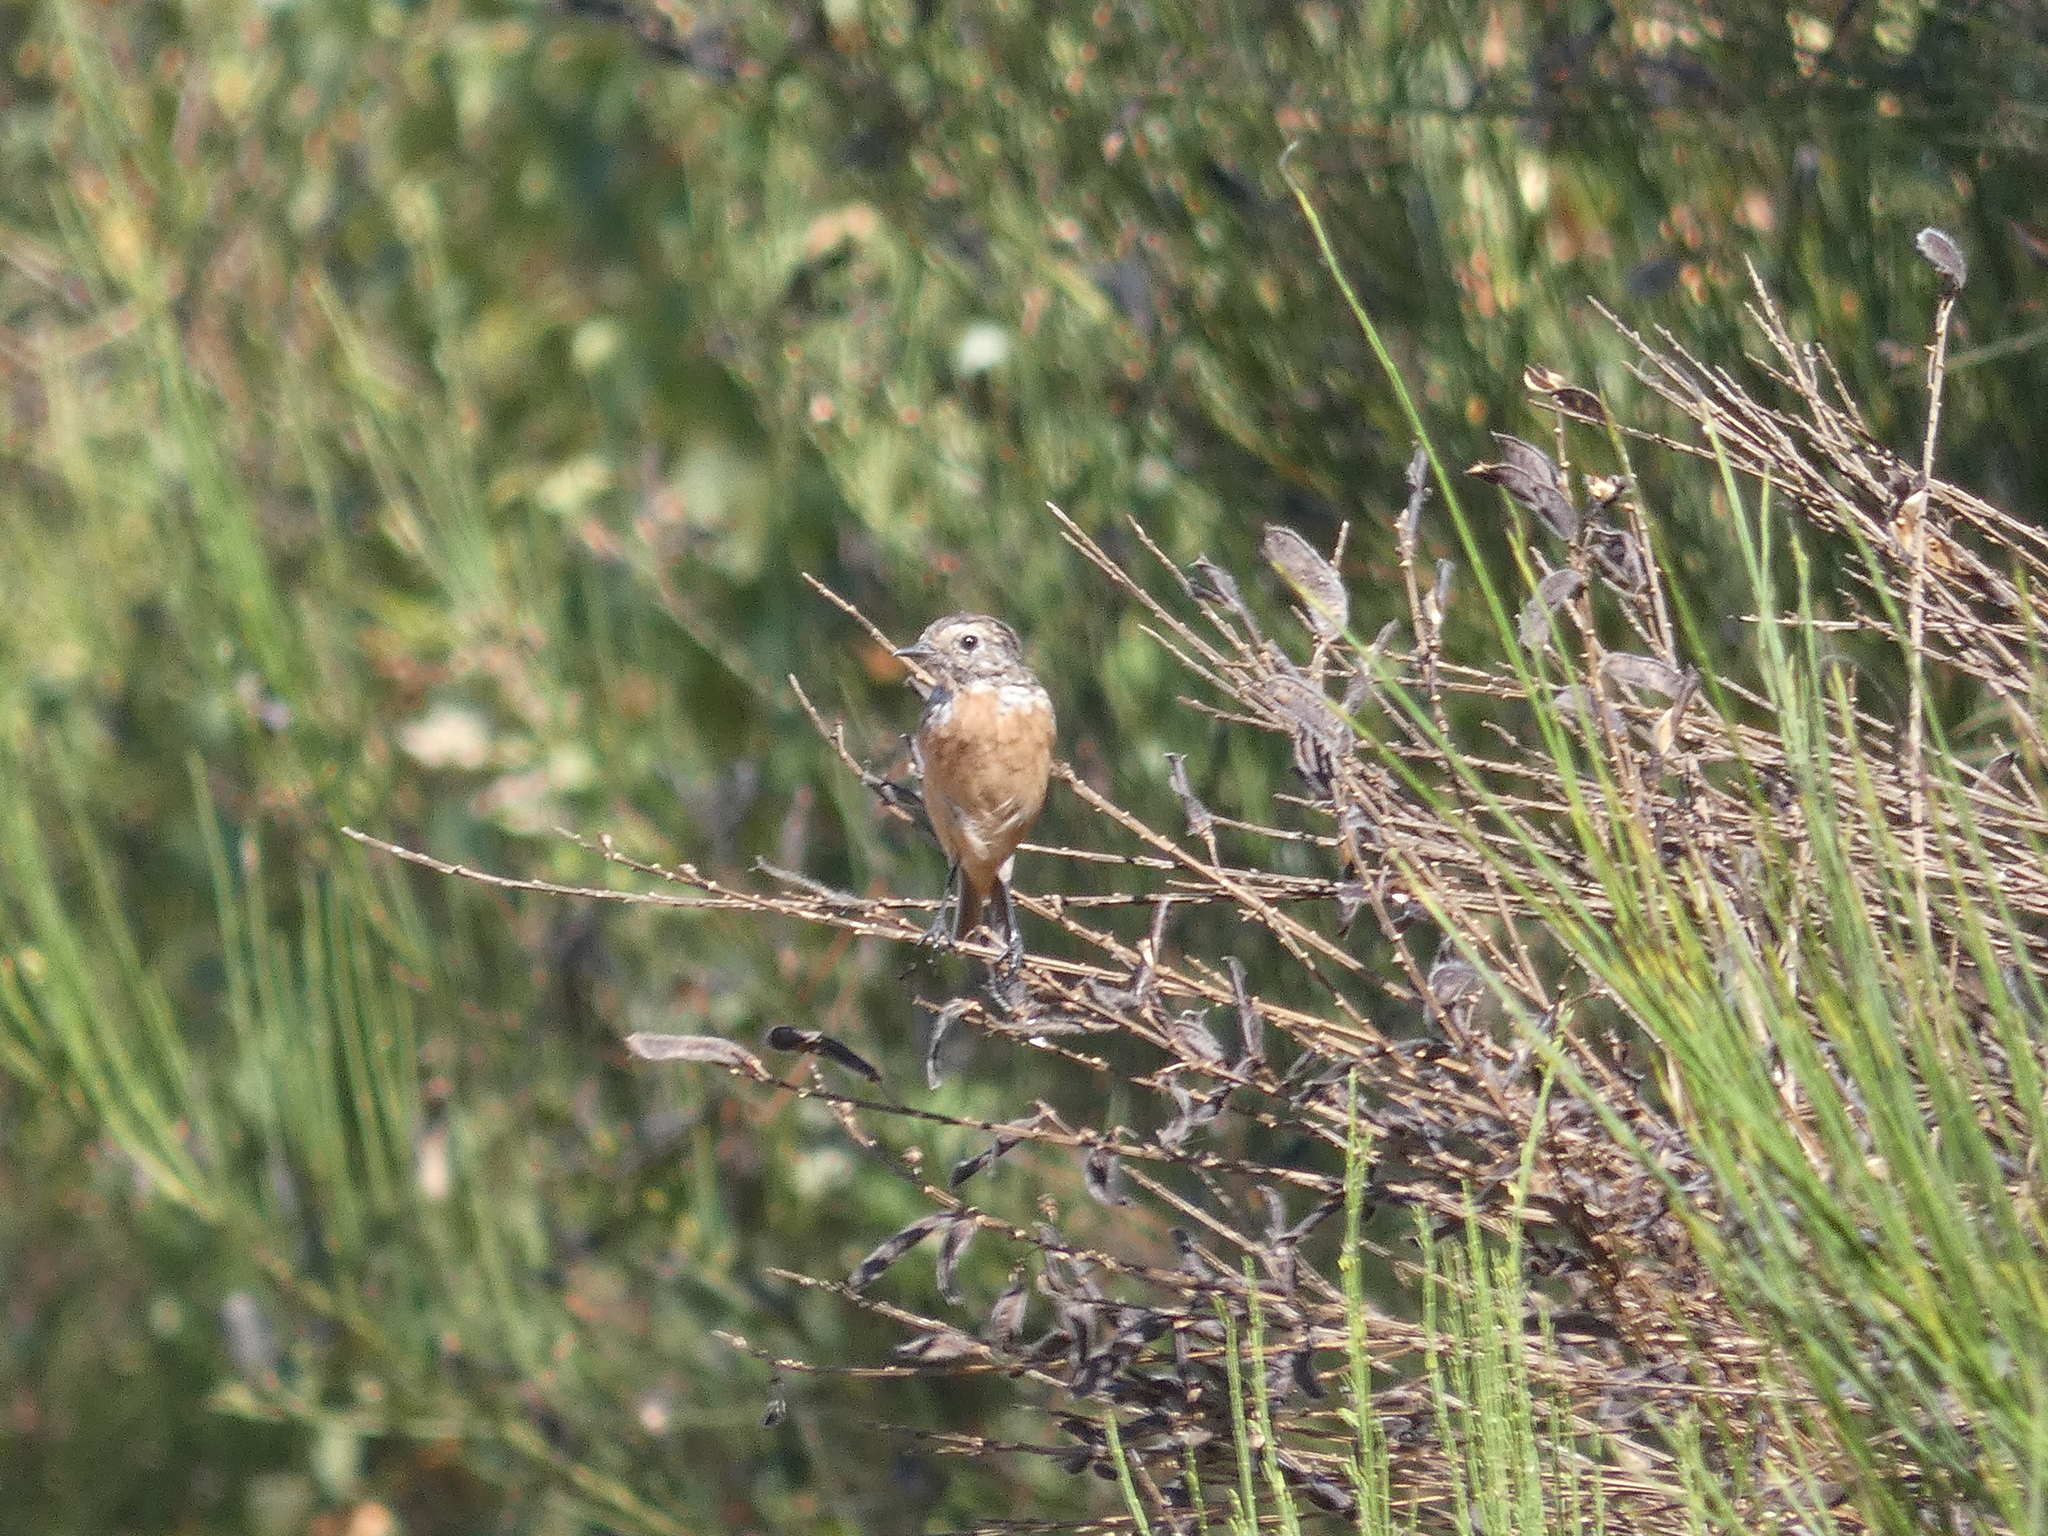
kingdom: Animalia
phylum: Chordata
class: Aves
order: Passeriformes
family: Muscicapidae
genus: Saxicola
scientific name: Saxicola rubicola
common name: European stonechat
